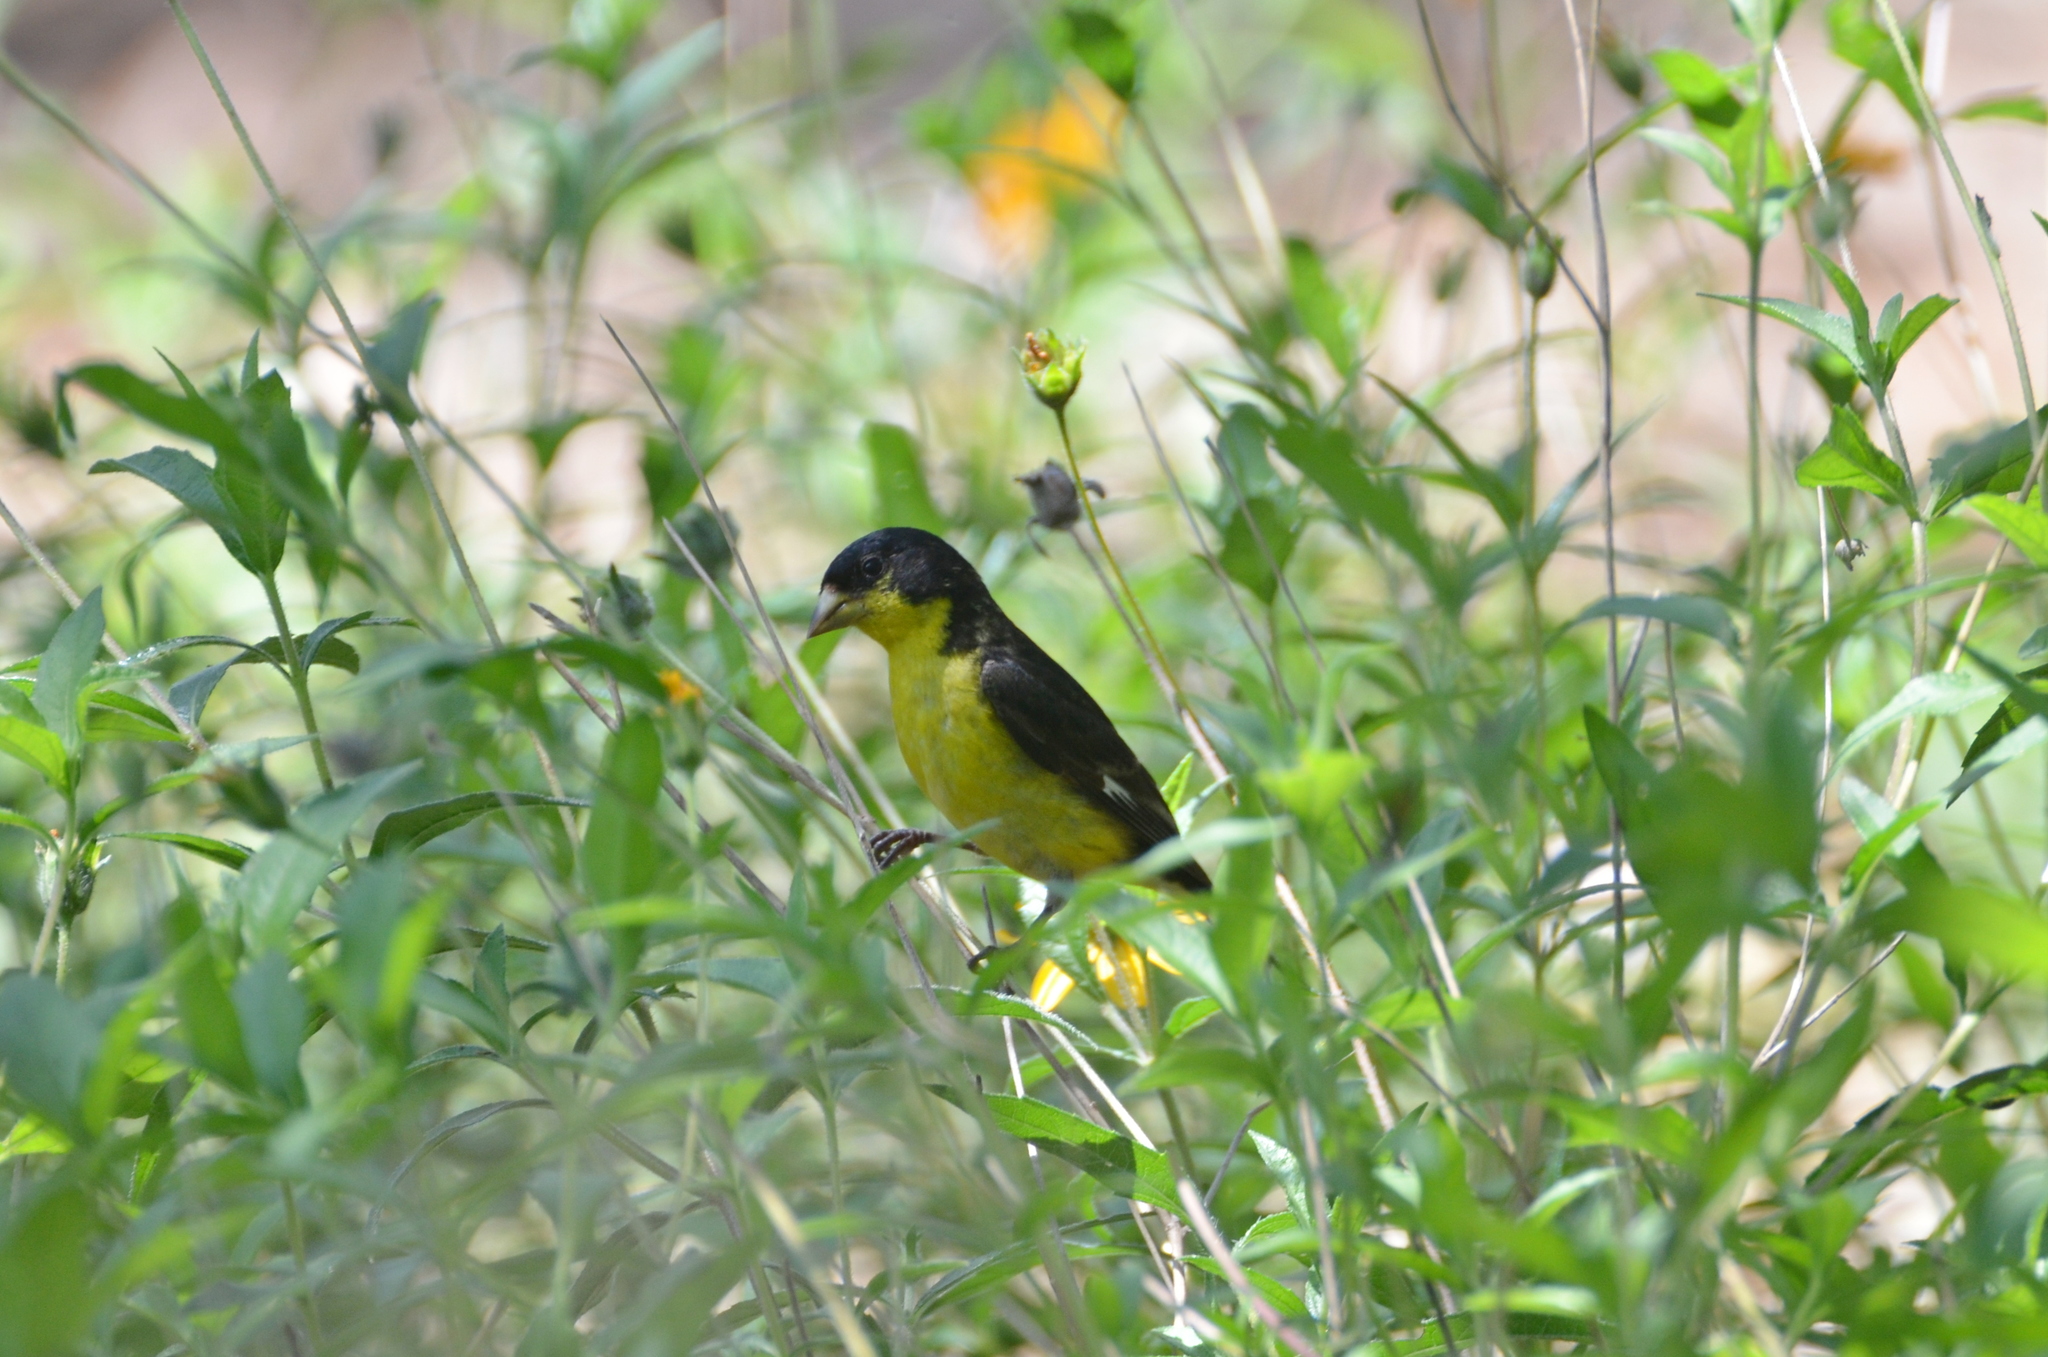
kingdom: Animalia
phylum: Chordata
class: Aves
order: Passeriformes
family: Fringillidae
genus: Spinus
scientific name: Spinus psaltria
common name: Lesser goldfinch
